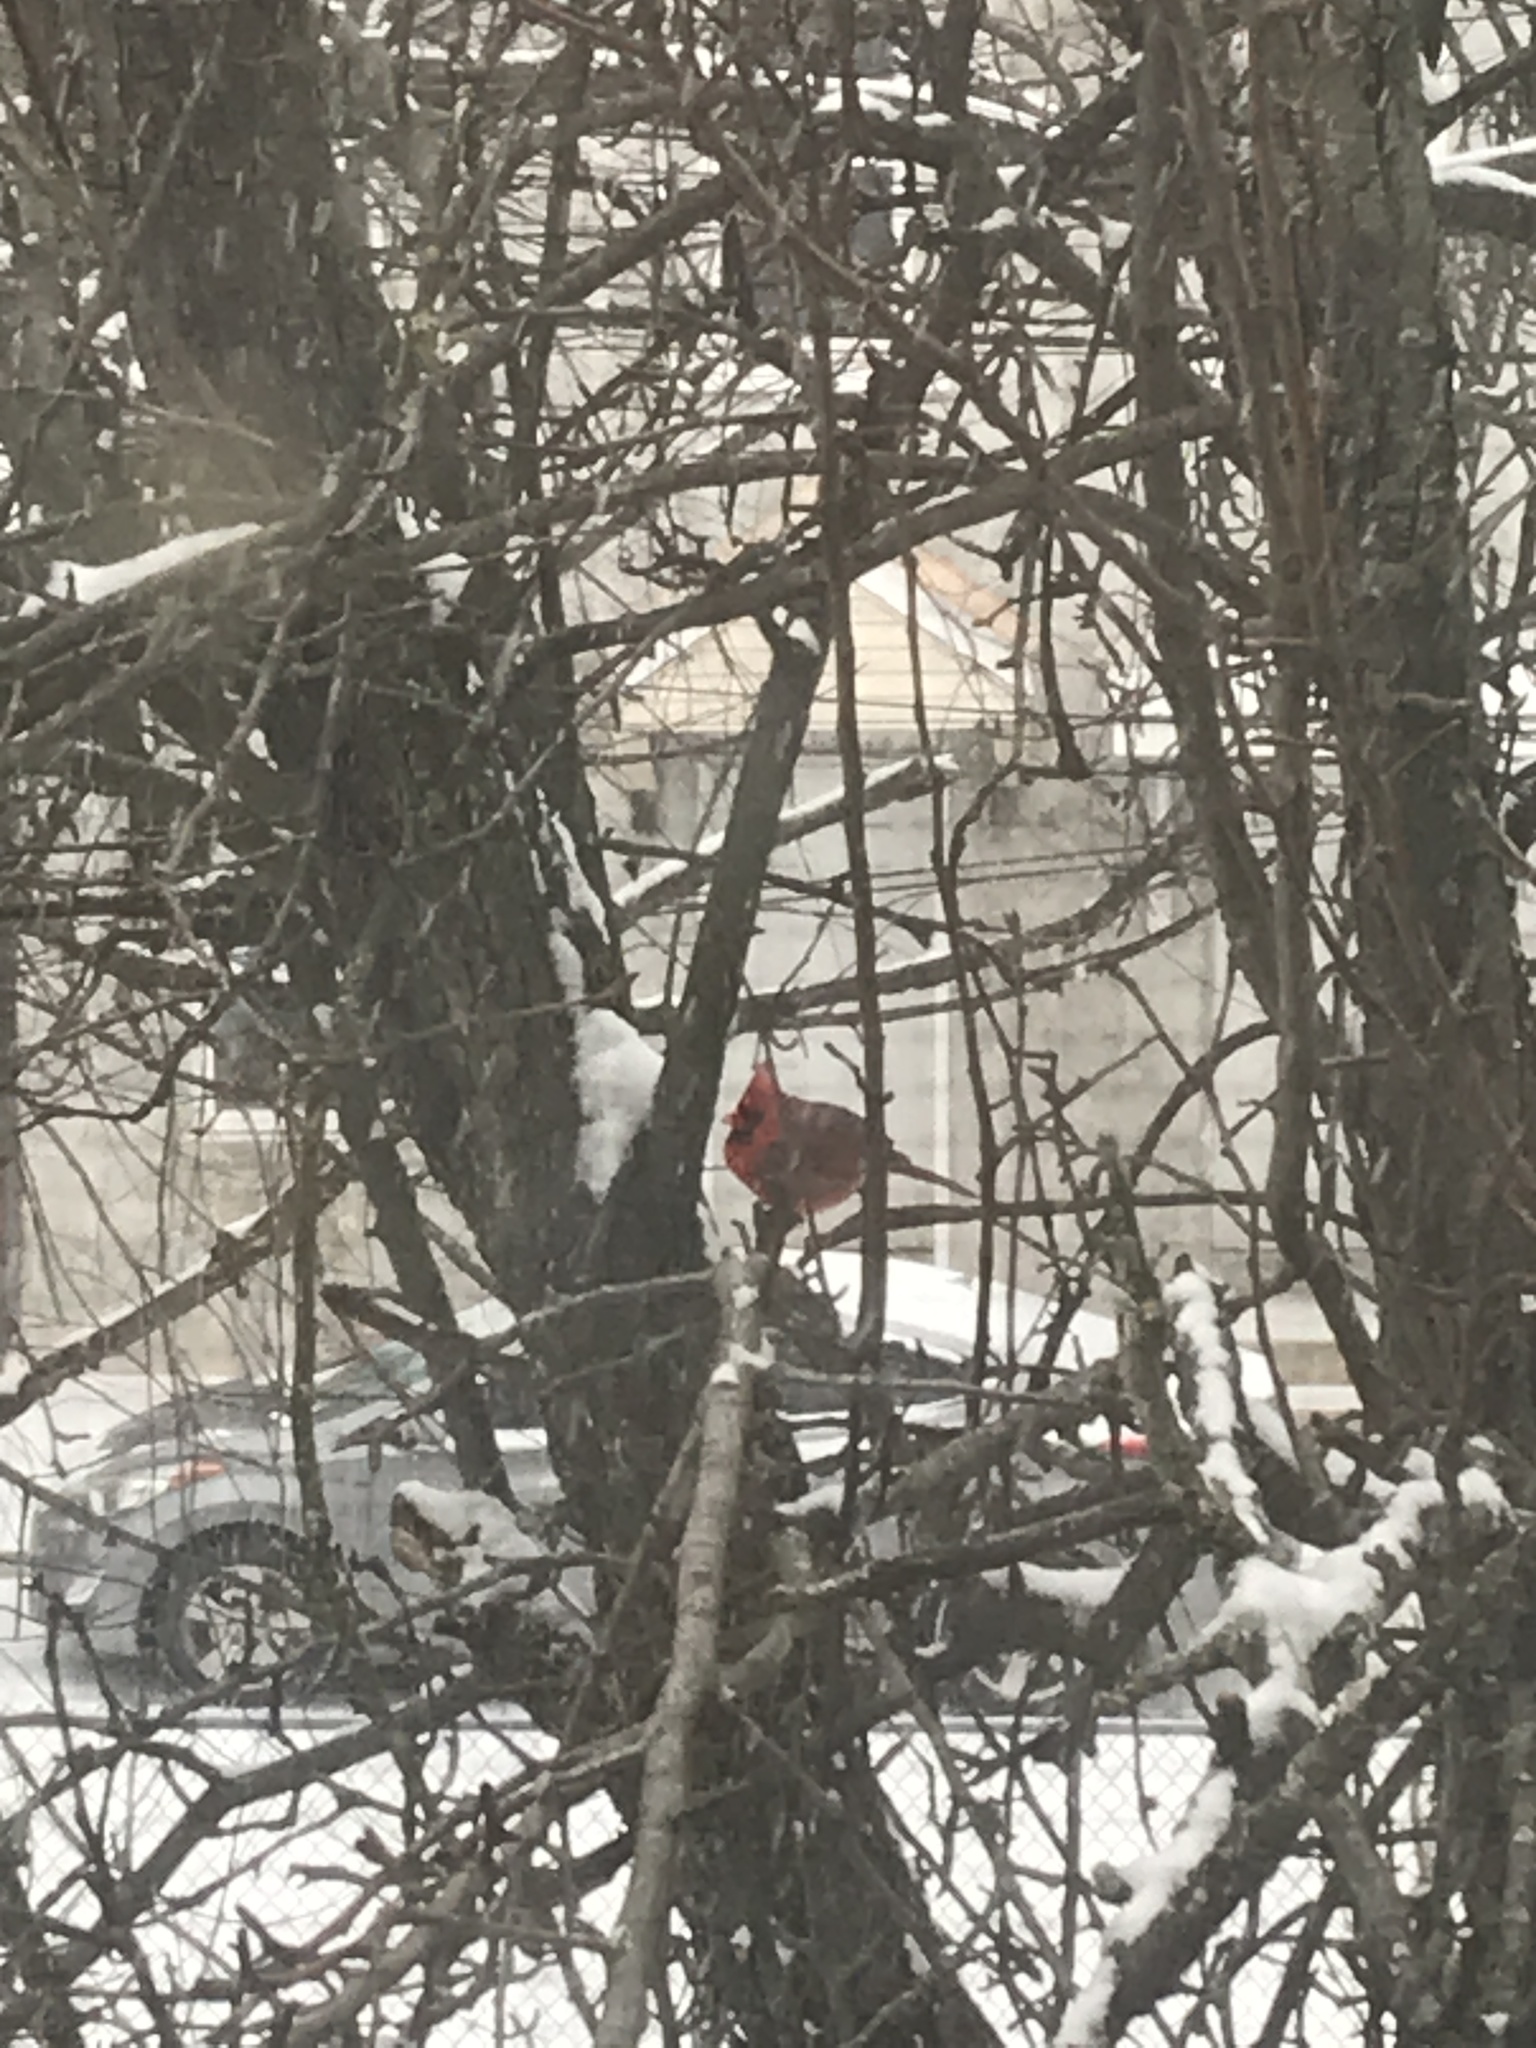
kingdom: Animalia
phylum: Chordata
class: Aves
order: Passeriformes
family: Cardinalidae
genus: Cardinalis
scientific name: Cardinalis cardinalis
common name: Northern cardinal
